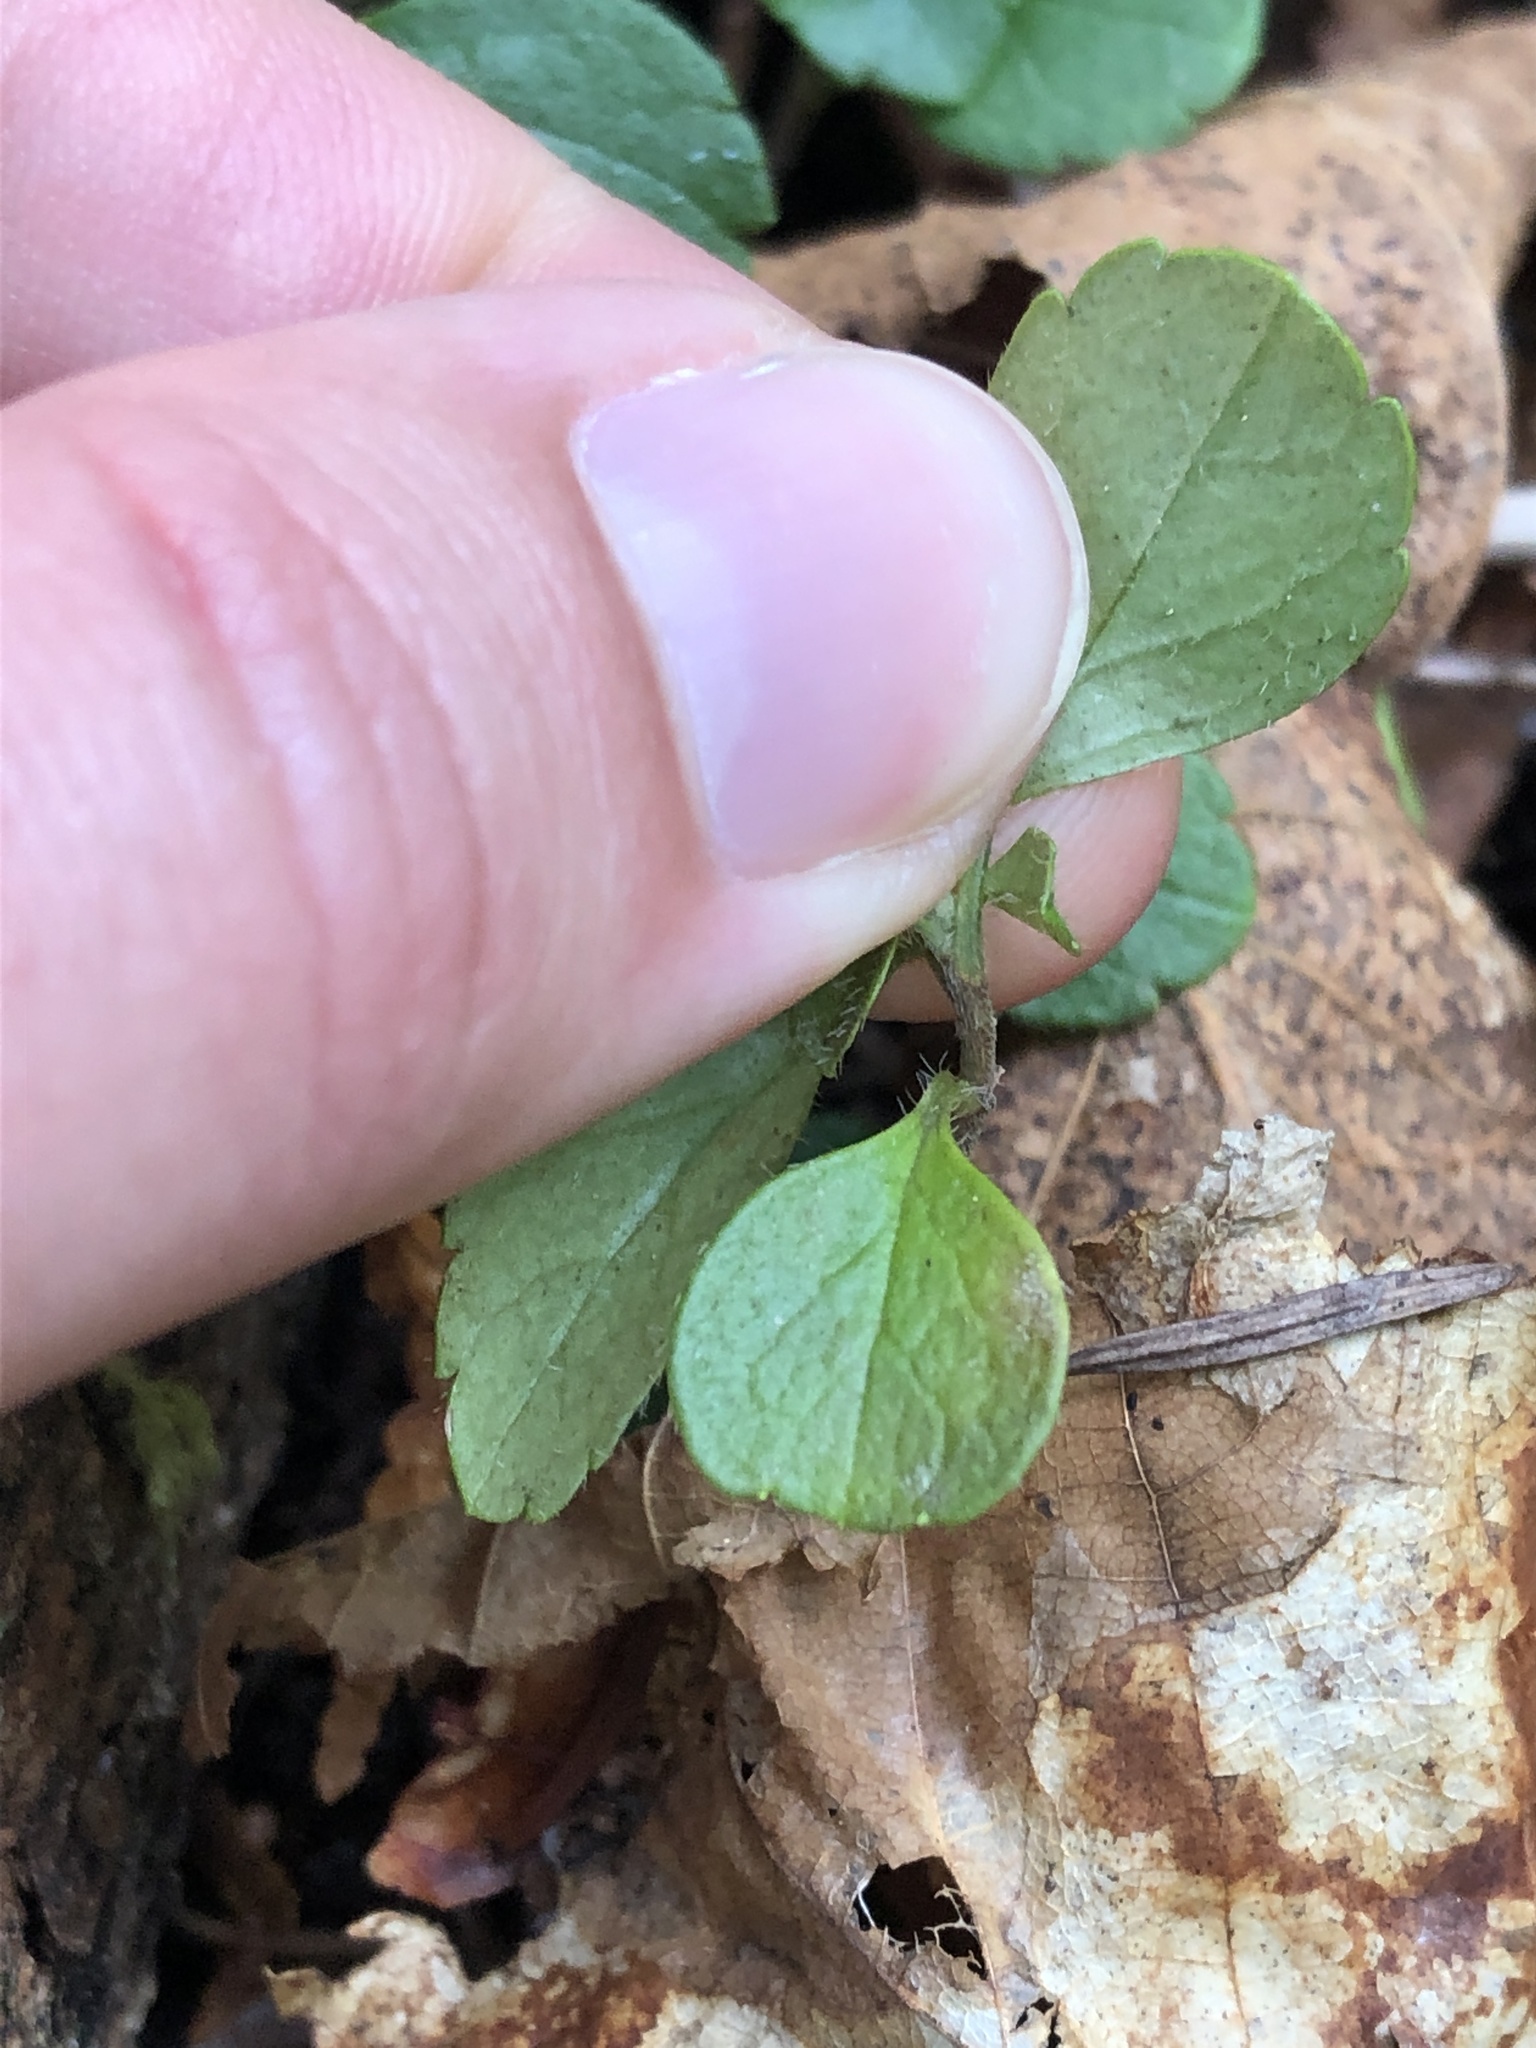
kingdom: Plantae
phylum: Tracheophyta
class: Magnoliopsida
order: Dipsacales
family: Caprifoliaceae
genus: Linnaea
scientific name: Linnaea borealis
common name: Twinflower
